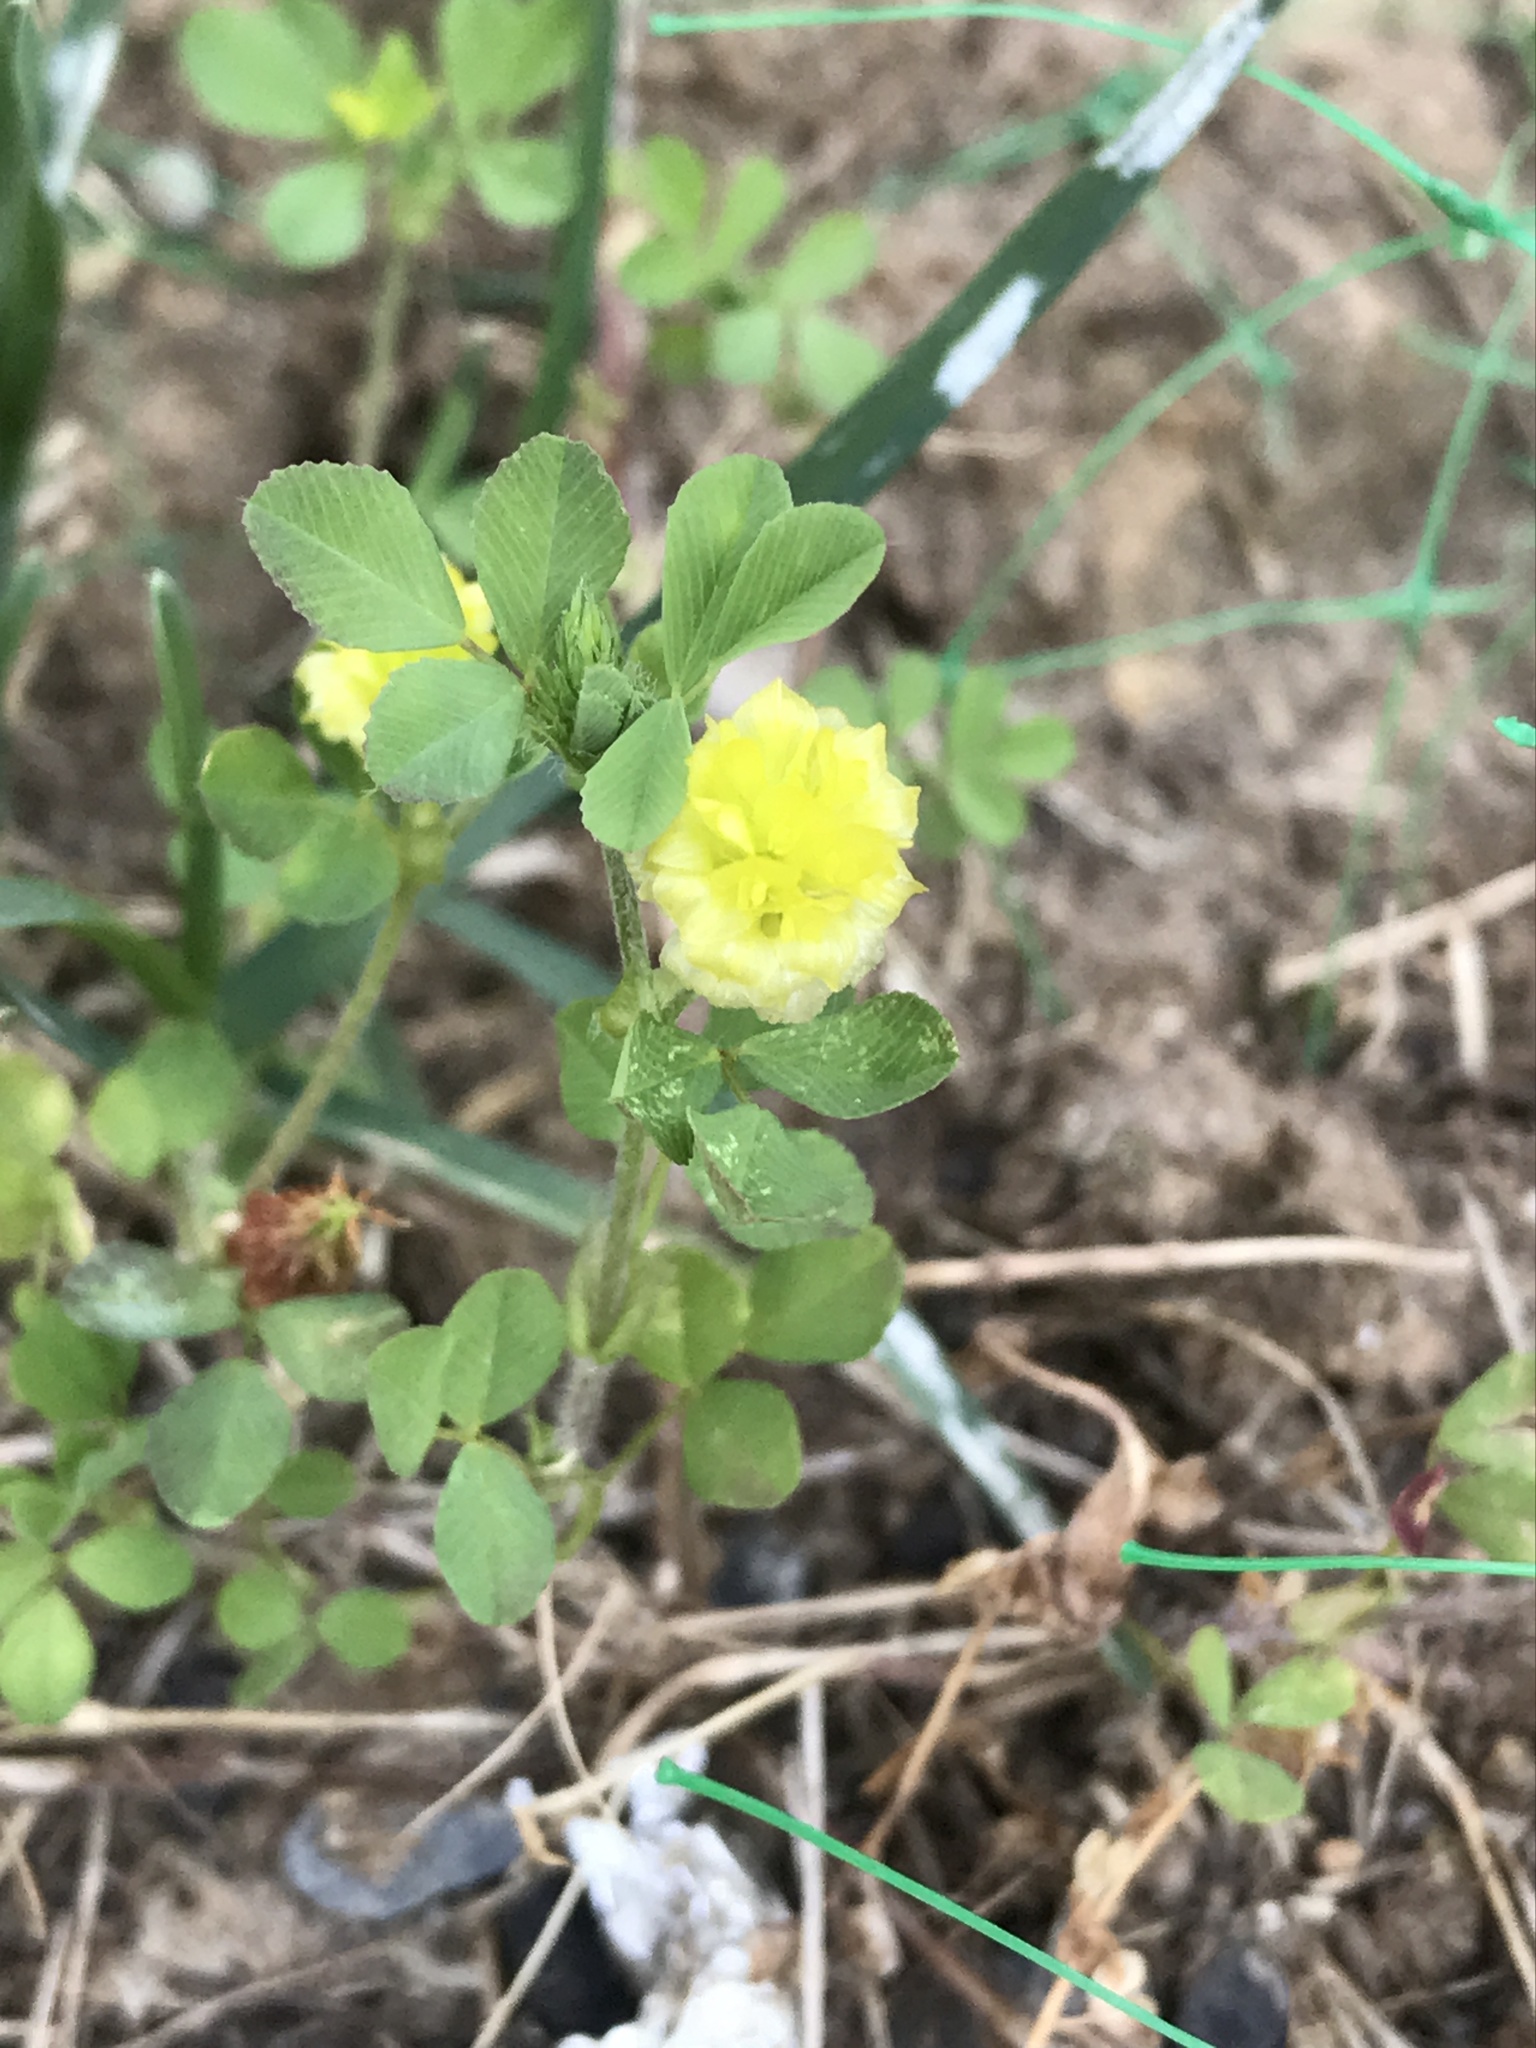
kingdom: Plantae
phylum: Tracheophyta
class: Magnoliopsida
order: Fabales
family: Fabaceae
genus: Trifolium
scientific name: Trifolium campestre
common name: Field clover
